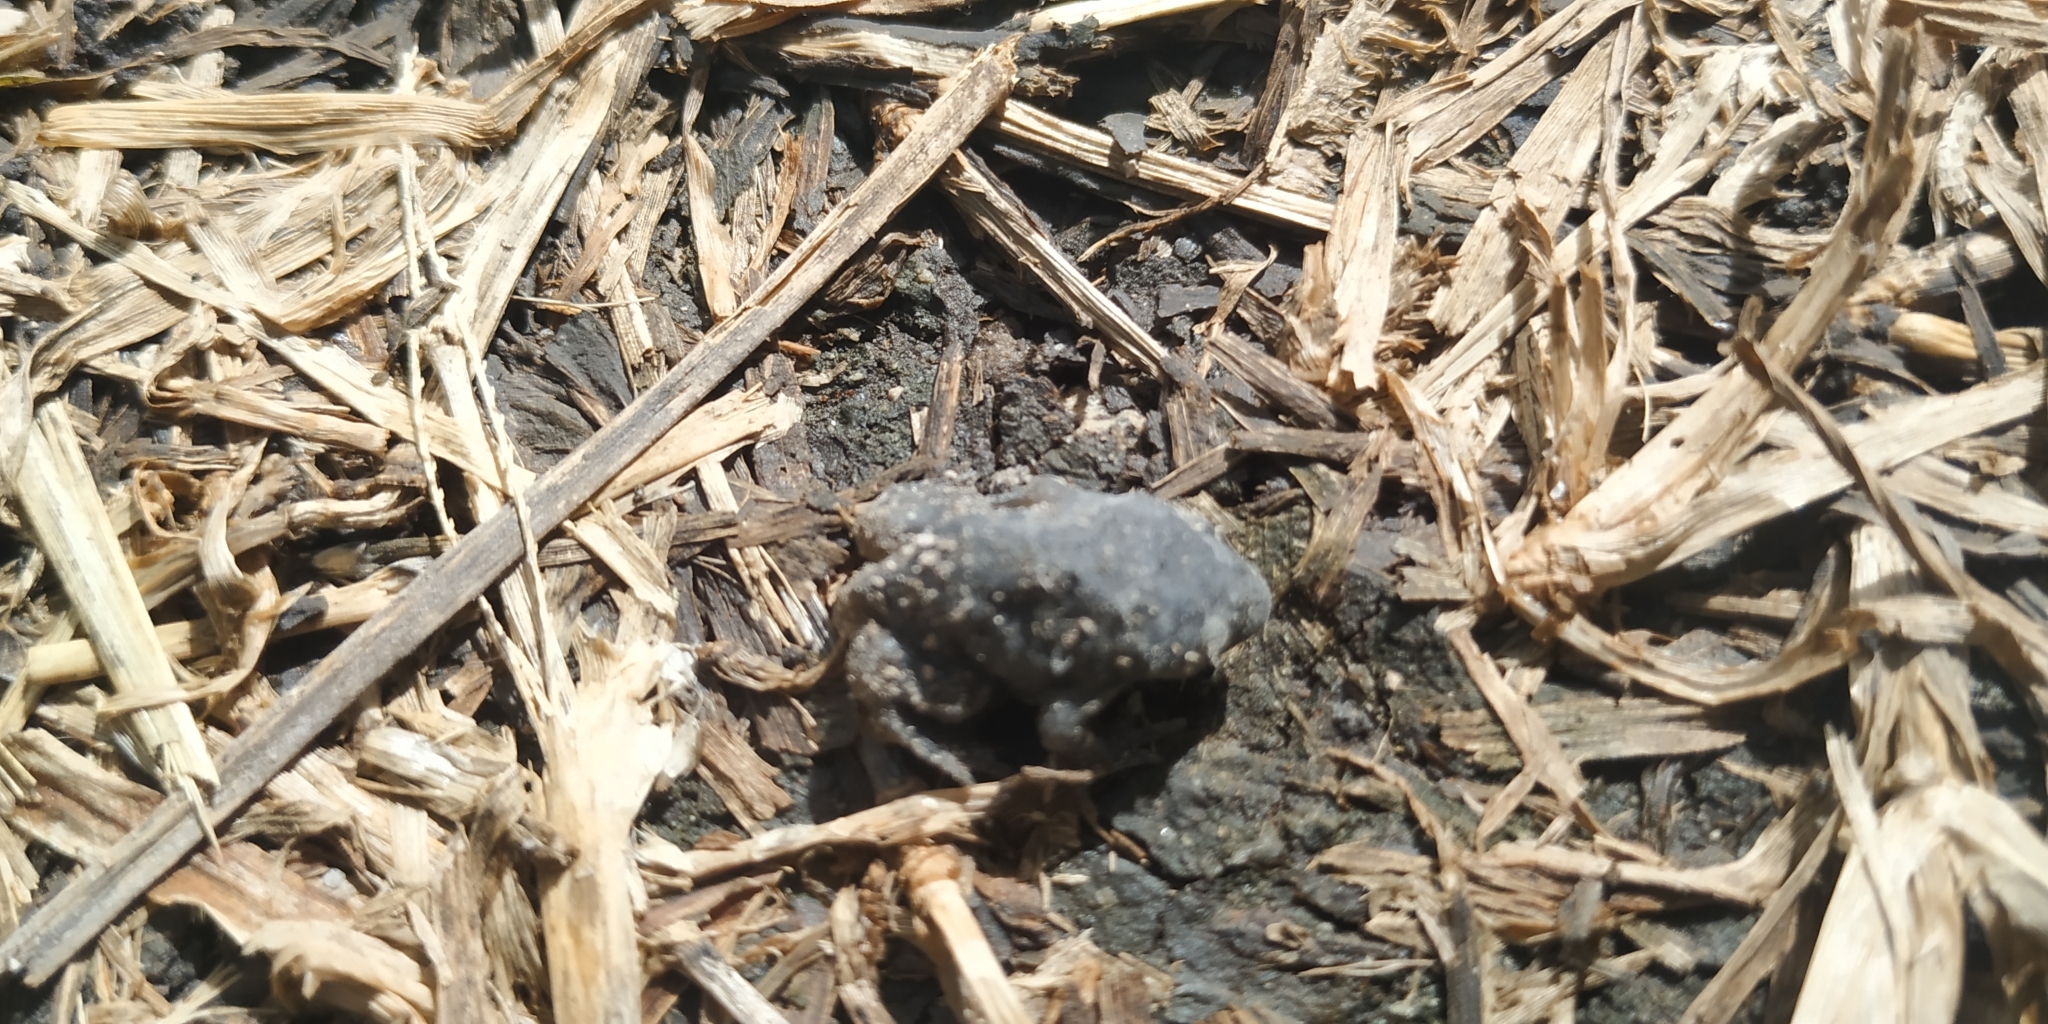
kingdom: Animalia
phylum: Chordata
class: Amphibia
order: Anura
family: Rhinophrynidae
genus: Rhinophrynus
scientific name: Rhinophrynus dorsalis
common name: Mexican burrowing toad
